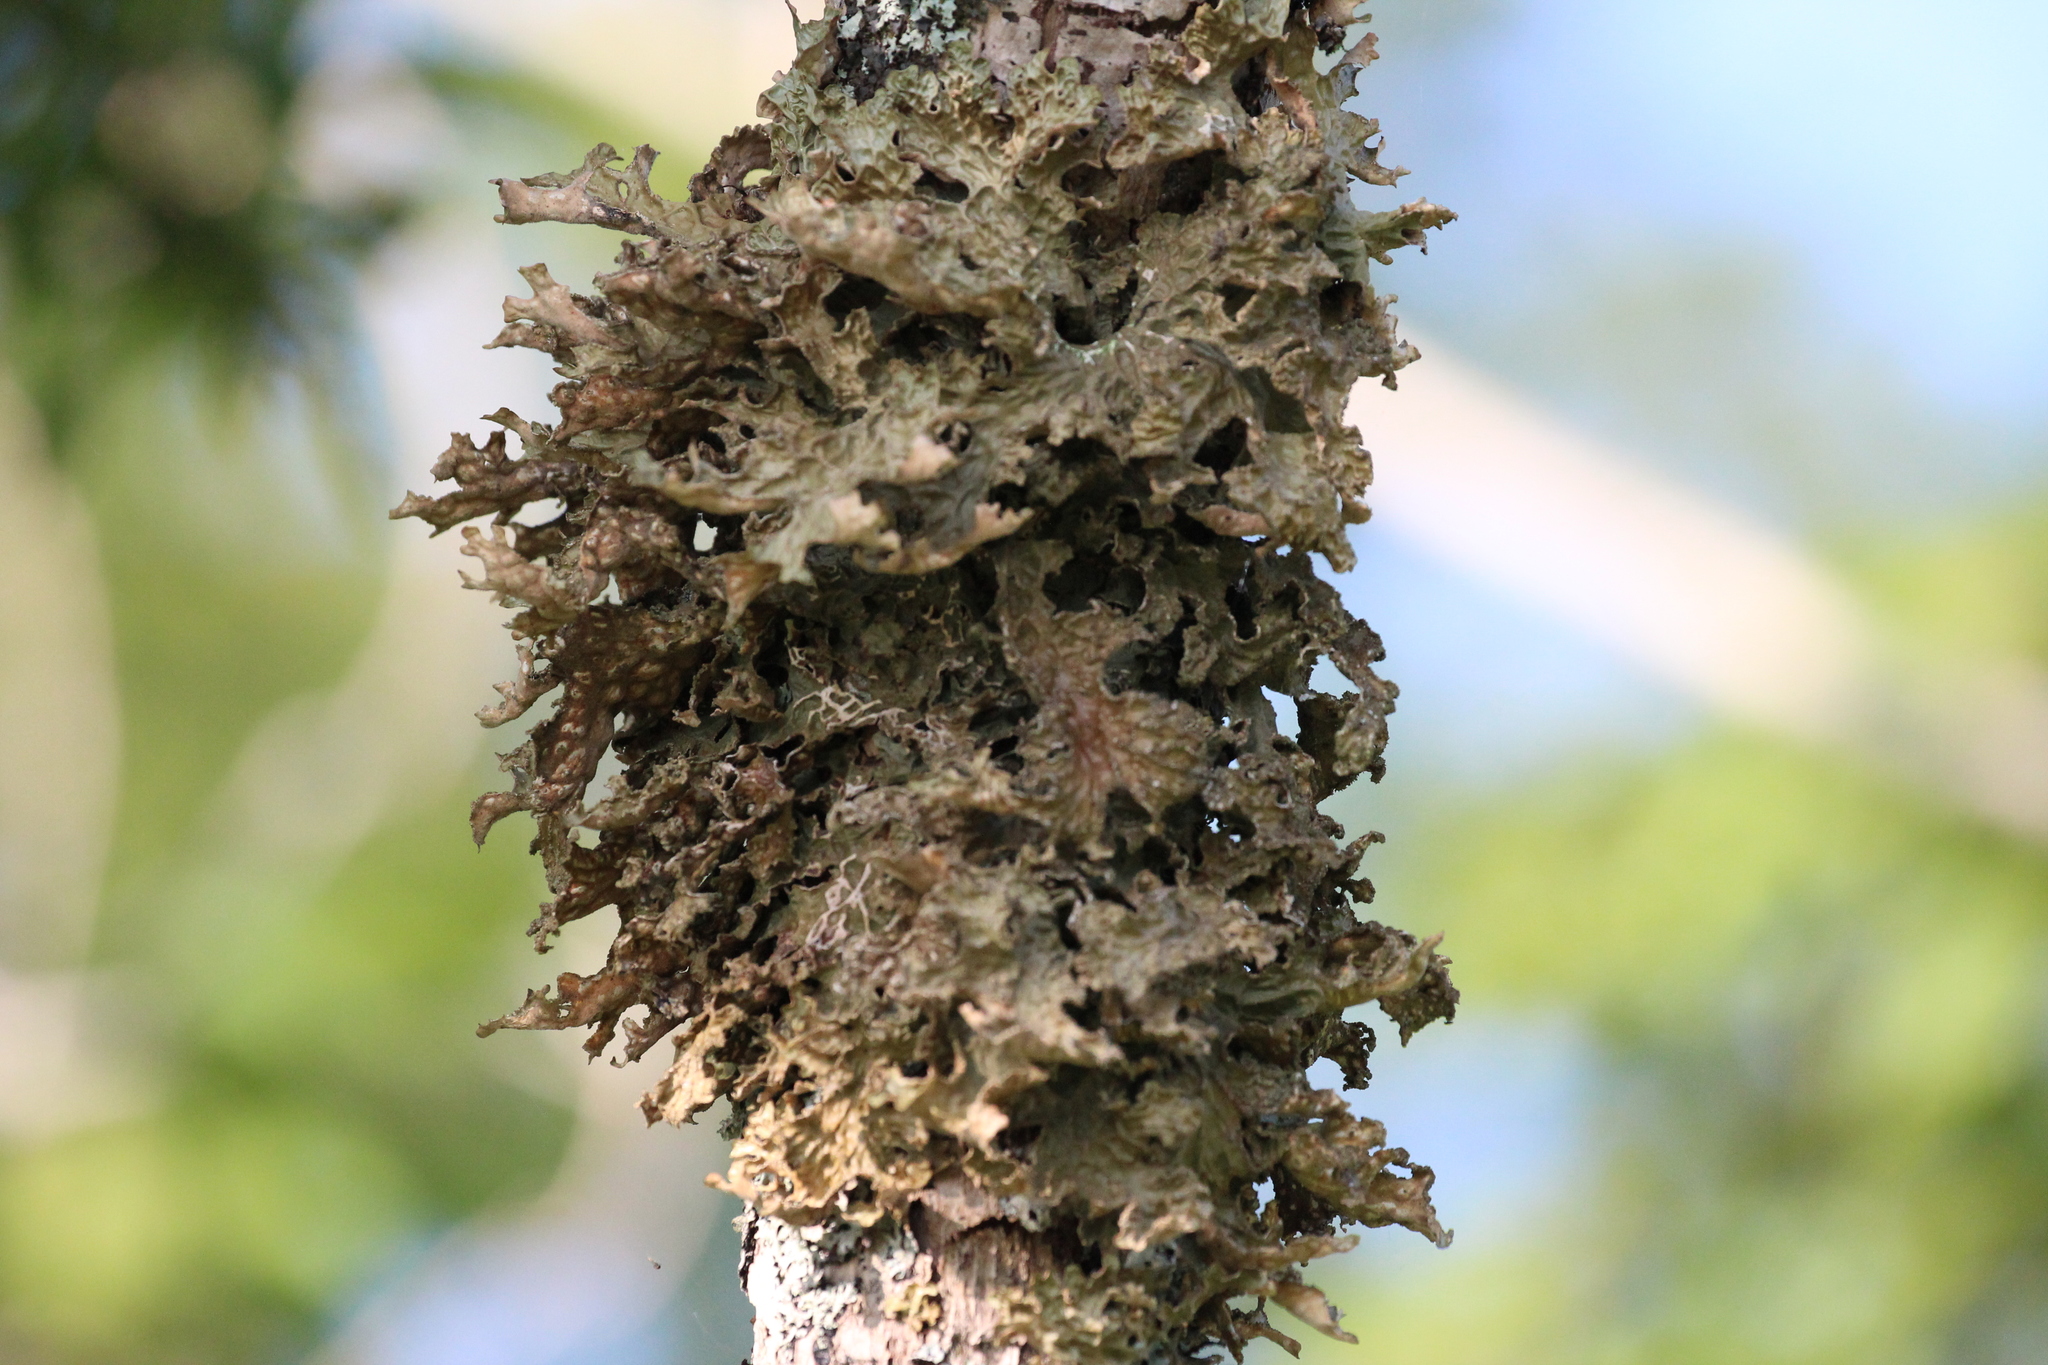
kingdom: Fungi
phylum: Ascomycota
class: Lecanoromycetes
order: Peltigerales
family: Lobariaceae
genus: Lobaria
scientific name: Lobaria pulmonaria
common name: Lungwort
